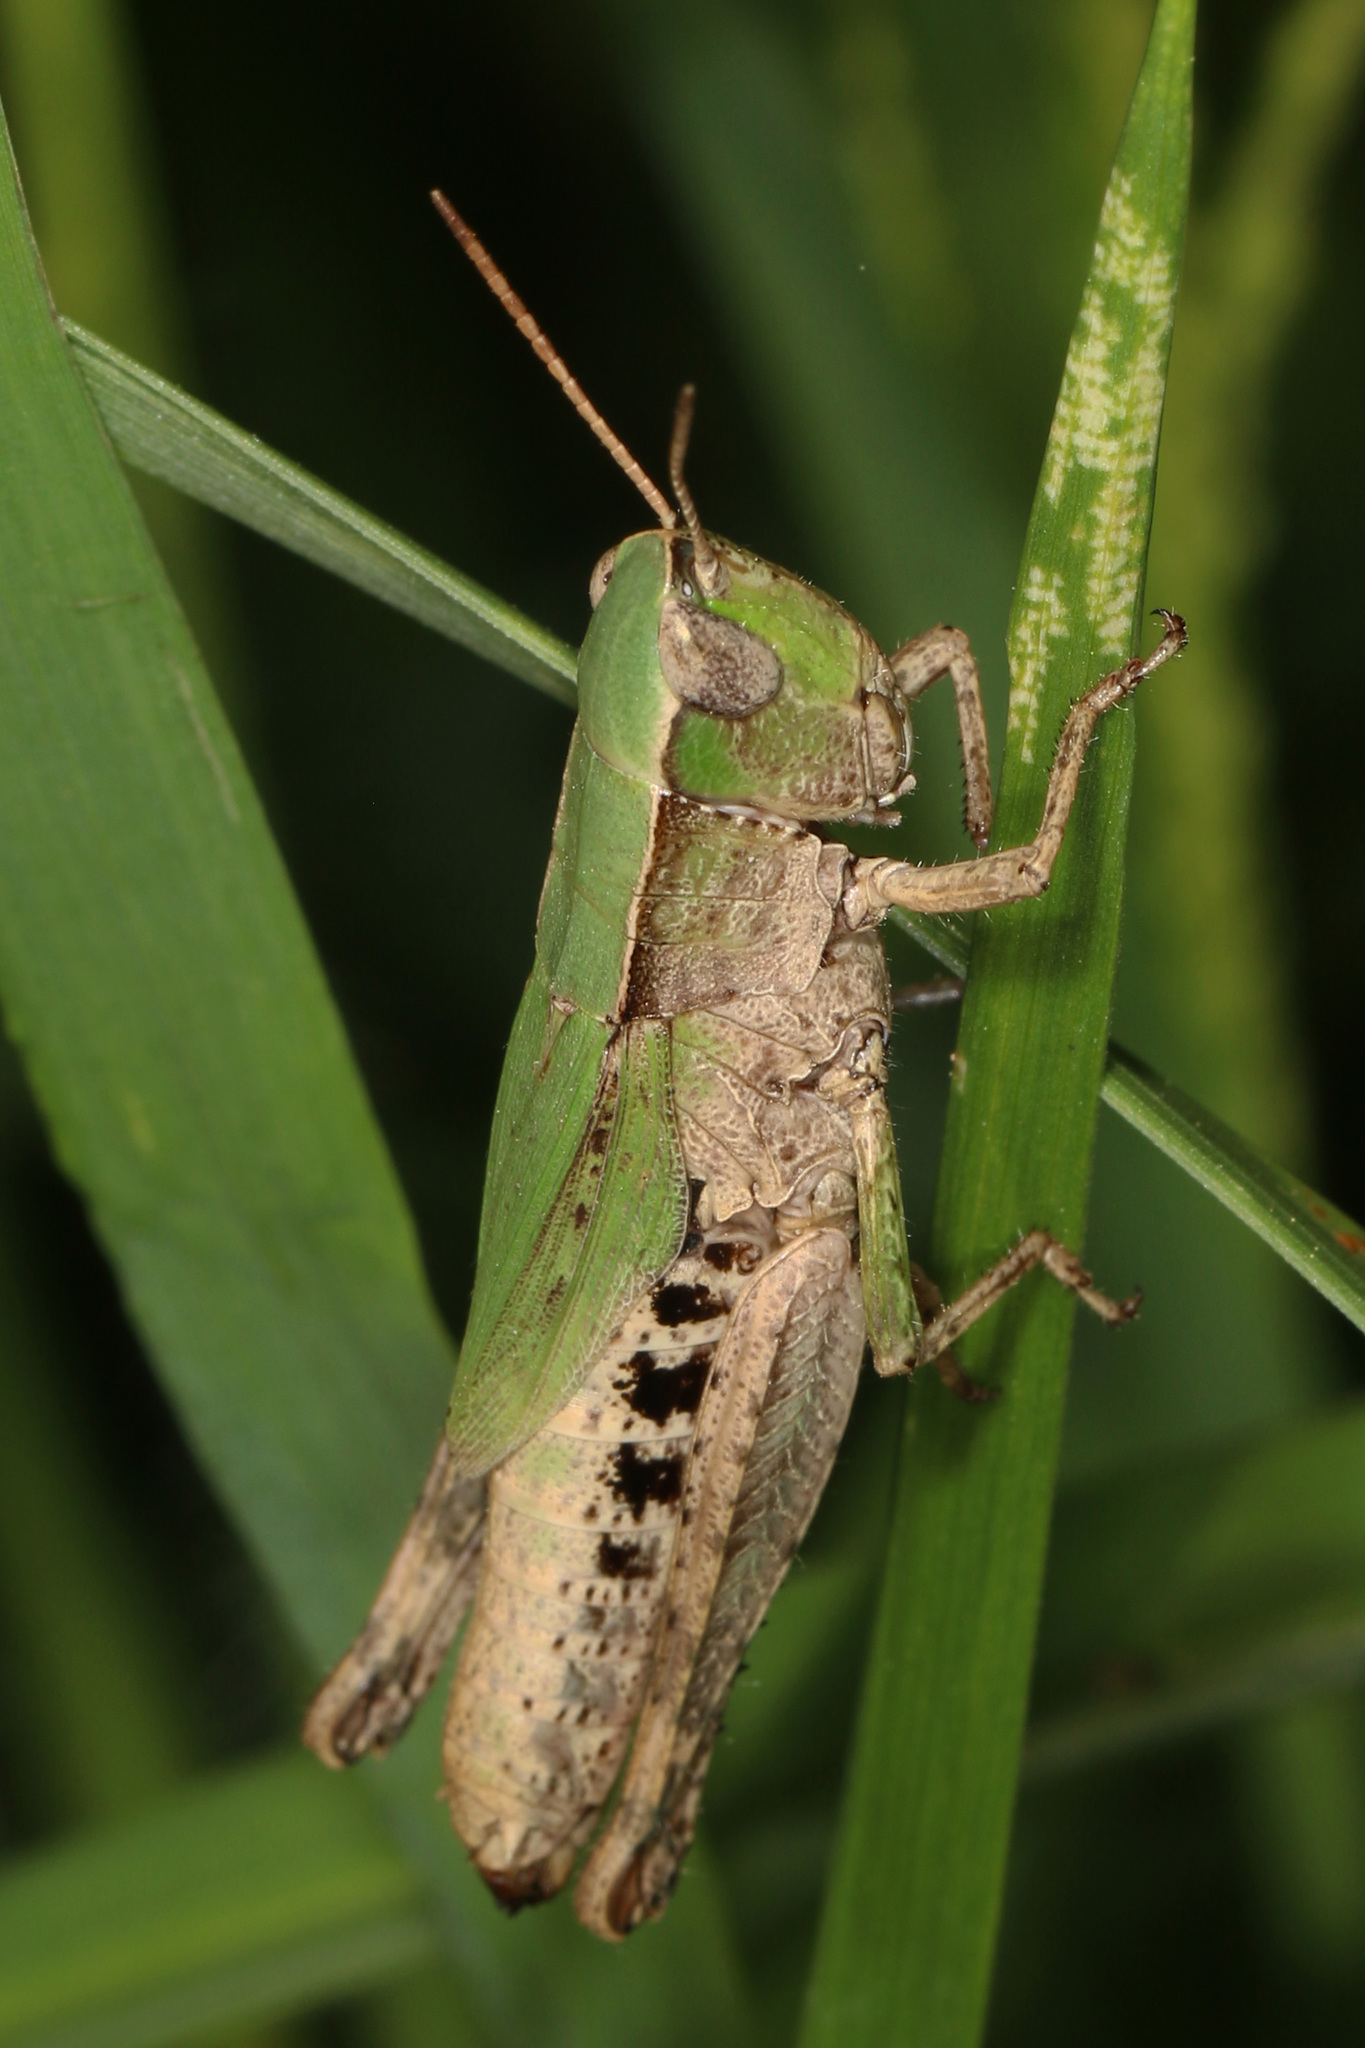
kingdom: Animalia
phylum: Arthropoda
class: Insecta
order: Orthoptera
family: Acrididae
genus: Dichromorpha
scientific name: Dichromorpha viridis
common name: Short-winged green grasshopper
